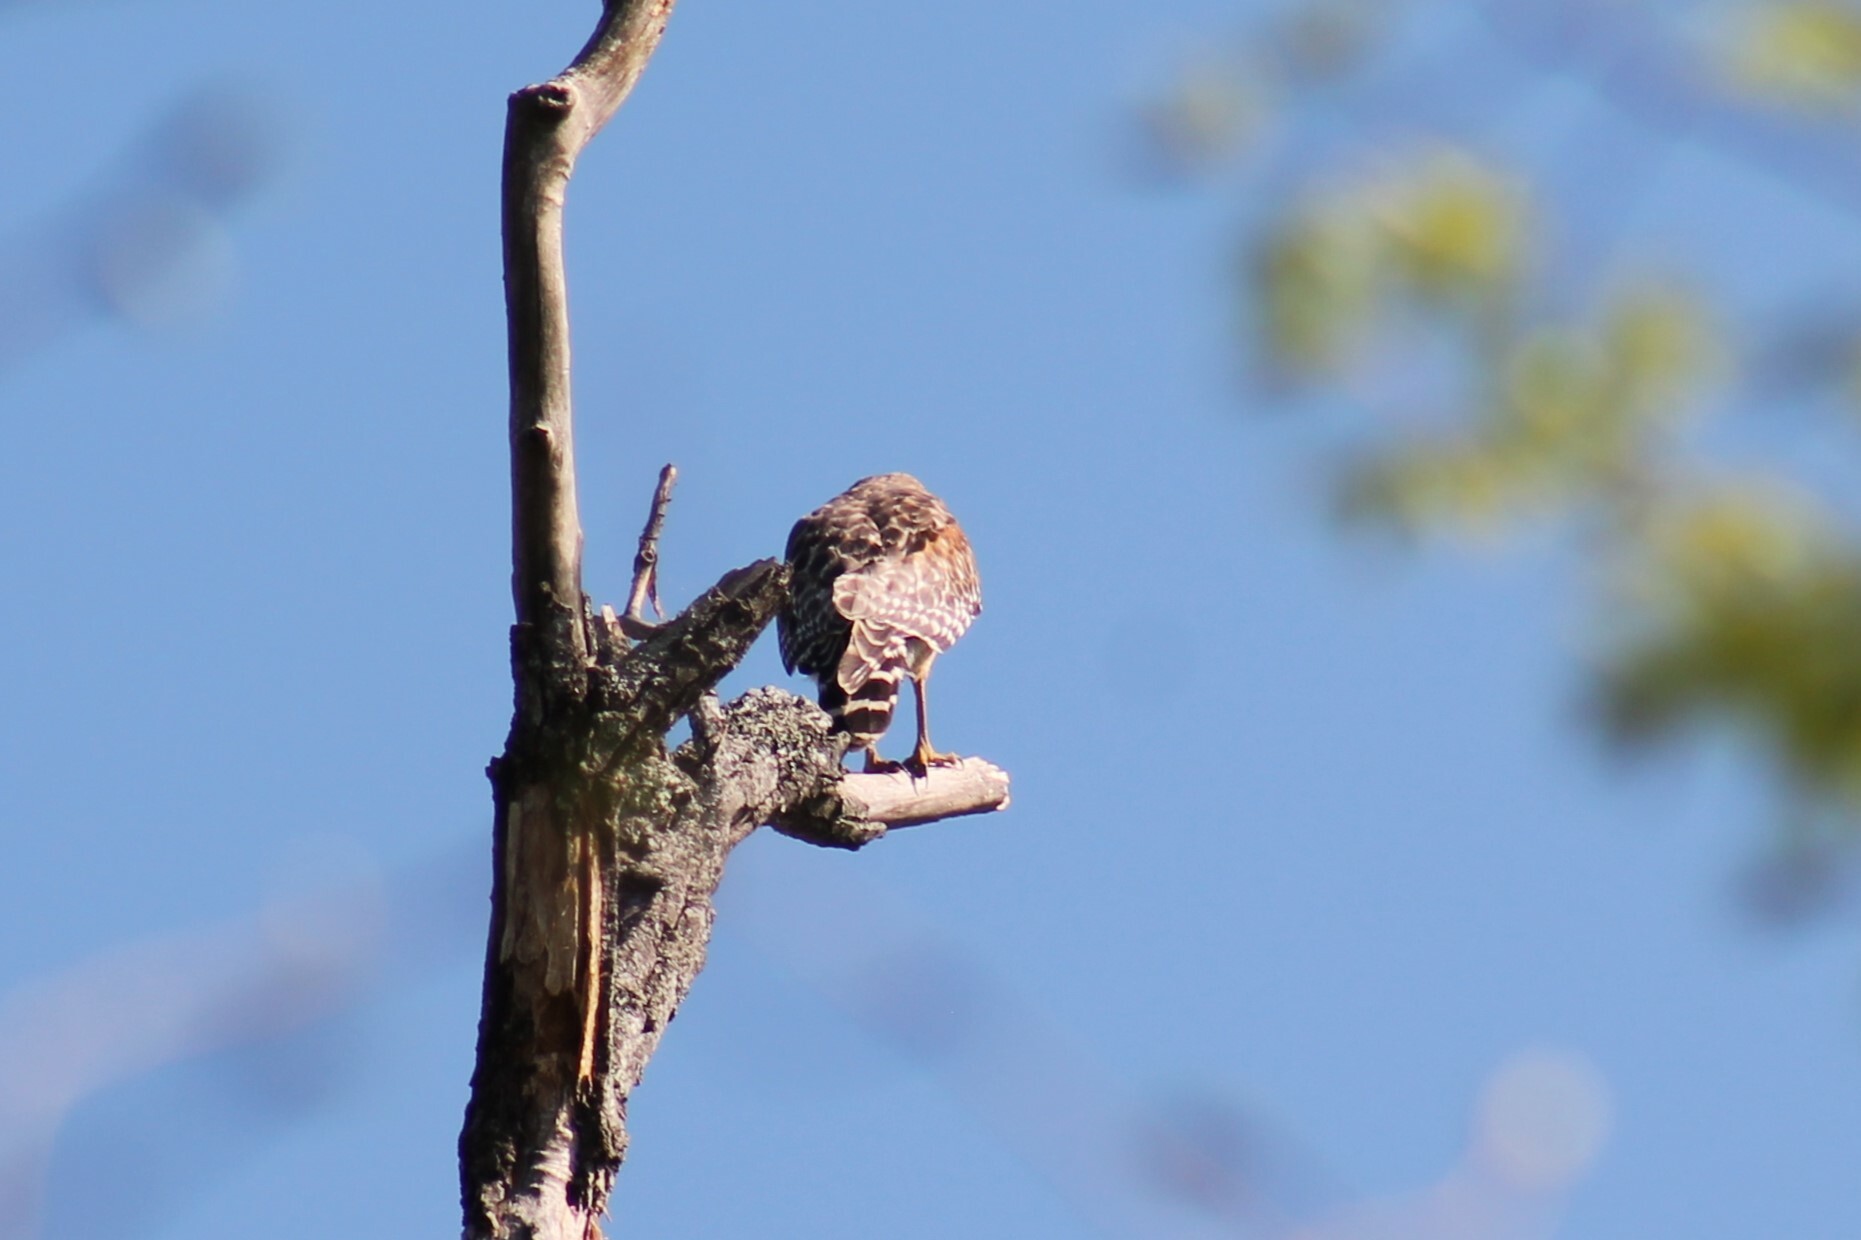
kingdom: Animalia
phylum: Chordata
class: Aves
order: Accipitriformes
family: Accipitridae
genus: Buteo
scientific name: Buteo lineatus
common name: Red-shouldered hawk
